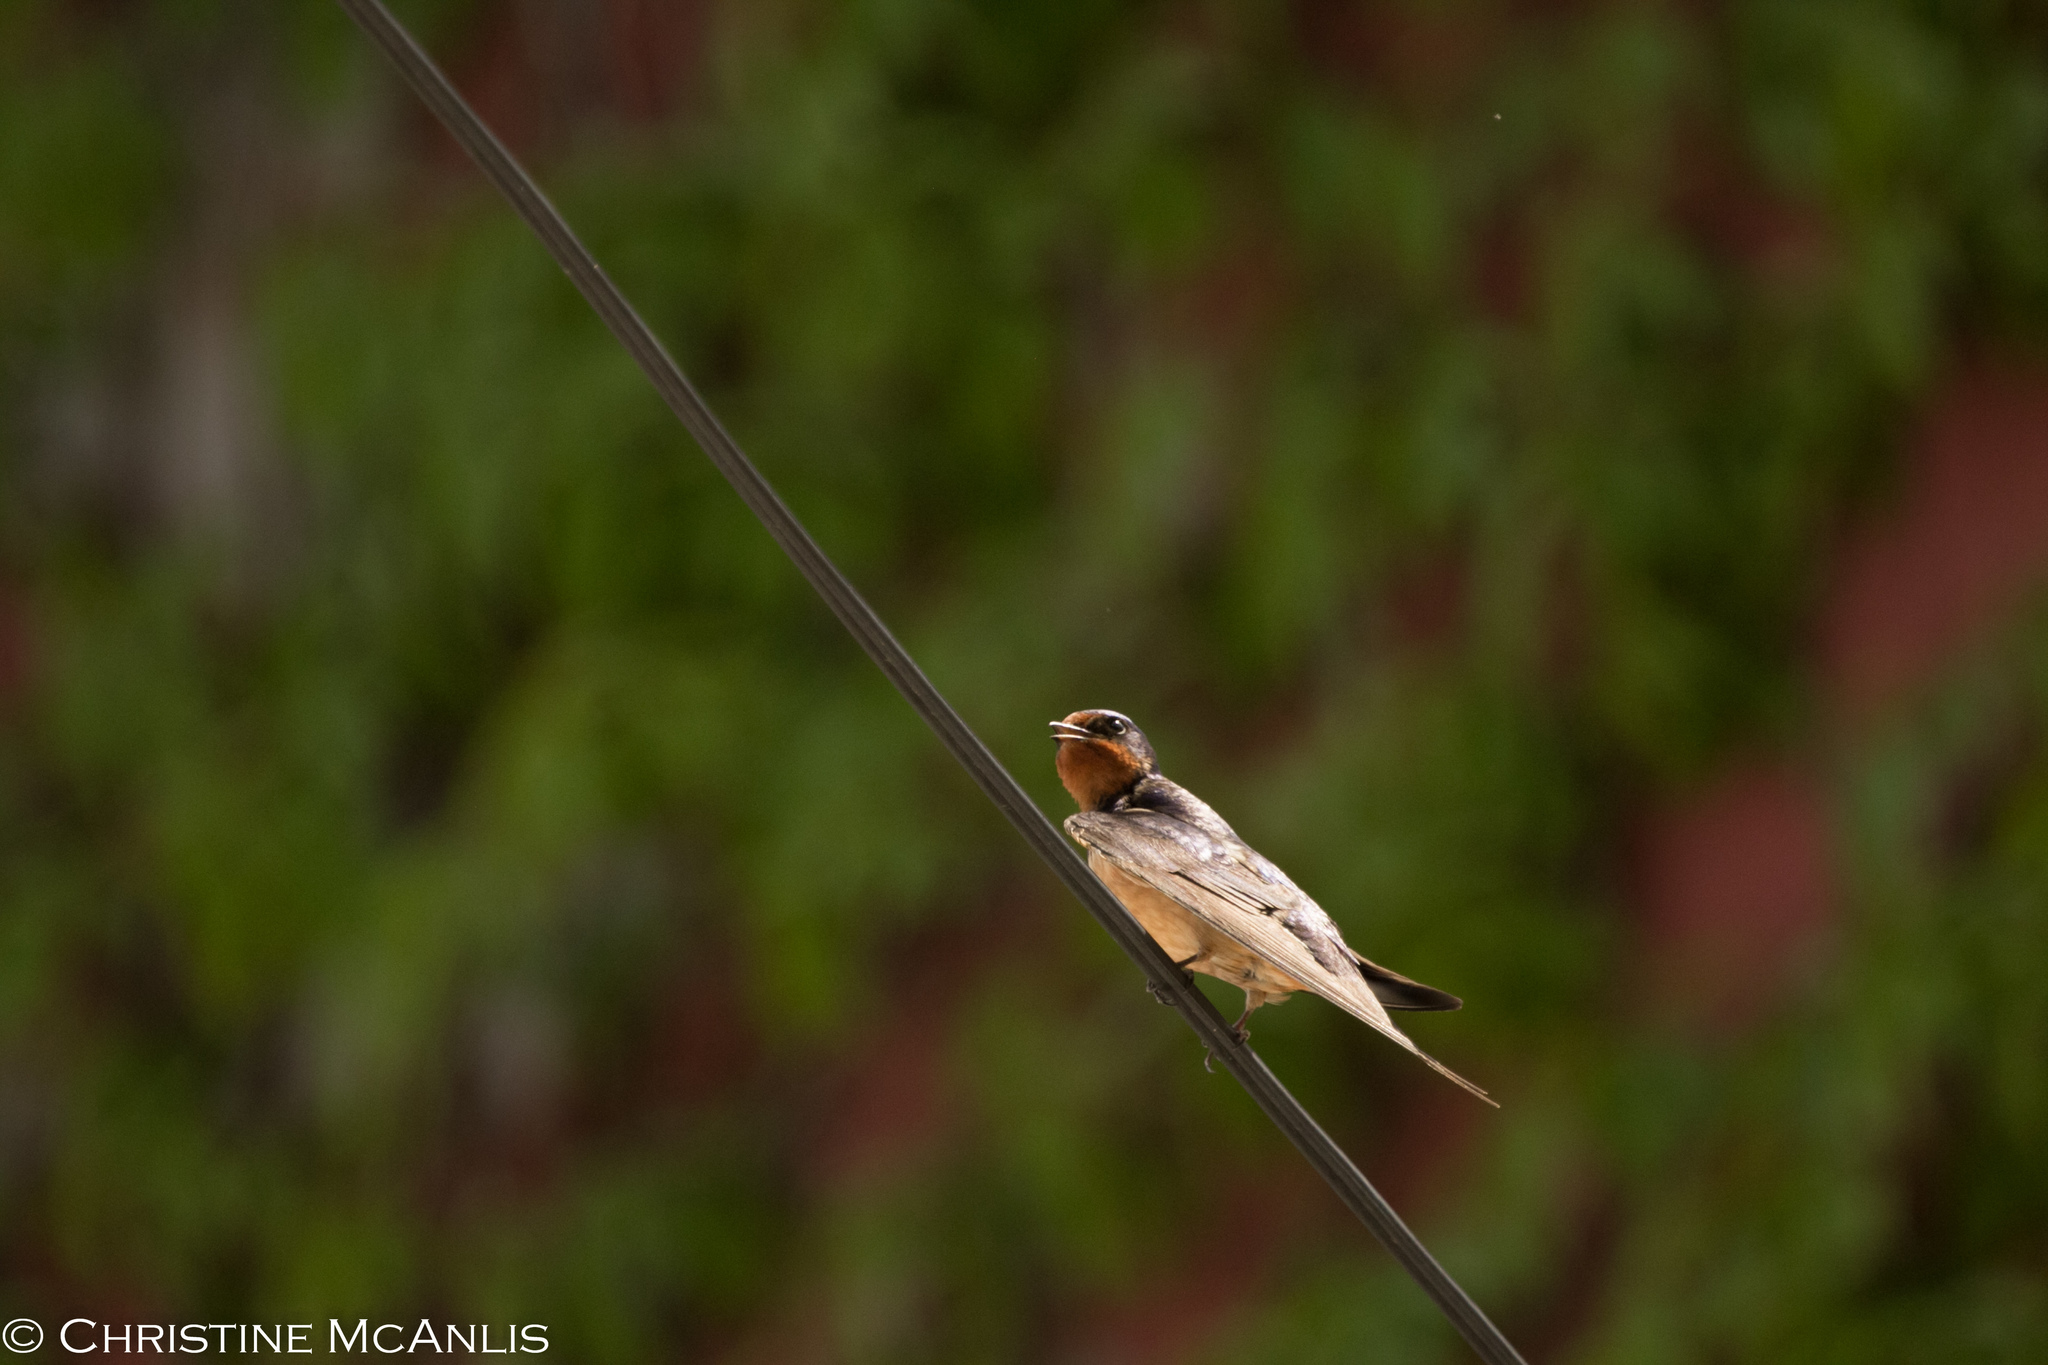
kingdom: Animalia
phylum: Chordata
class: Aves
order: Passeriformes
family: Hirundinidae
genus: Hirundo
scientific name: Hirundo rustica
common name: Barn swallow
